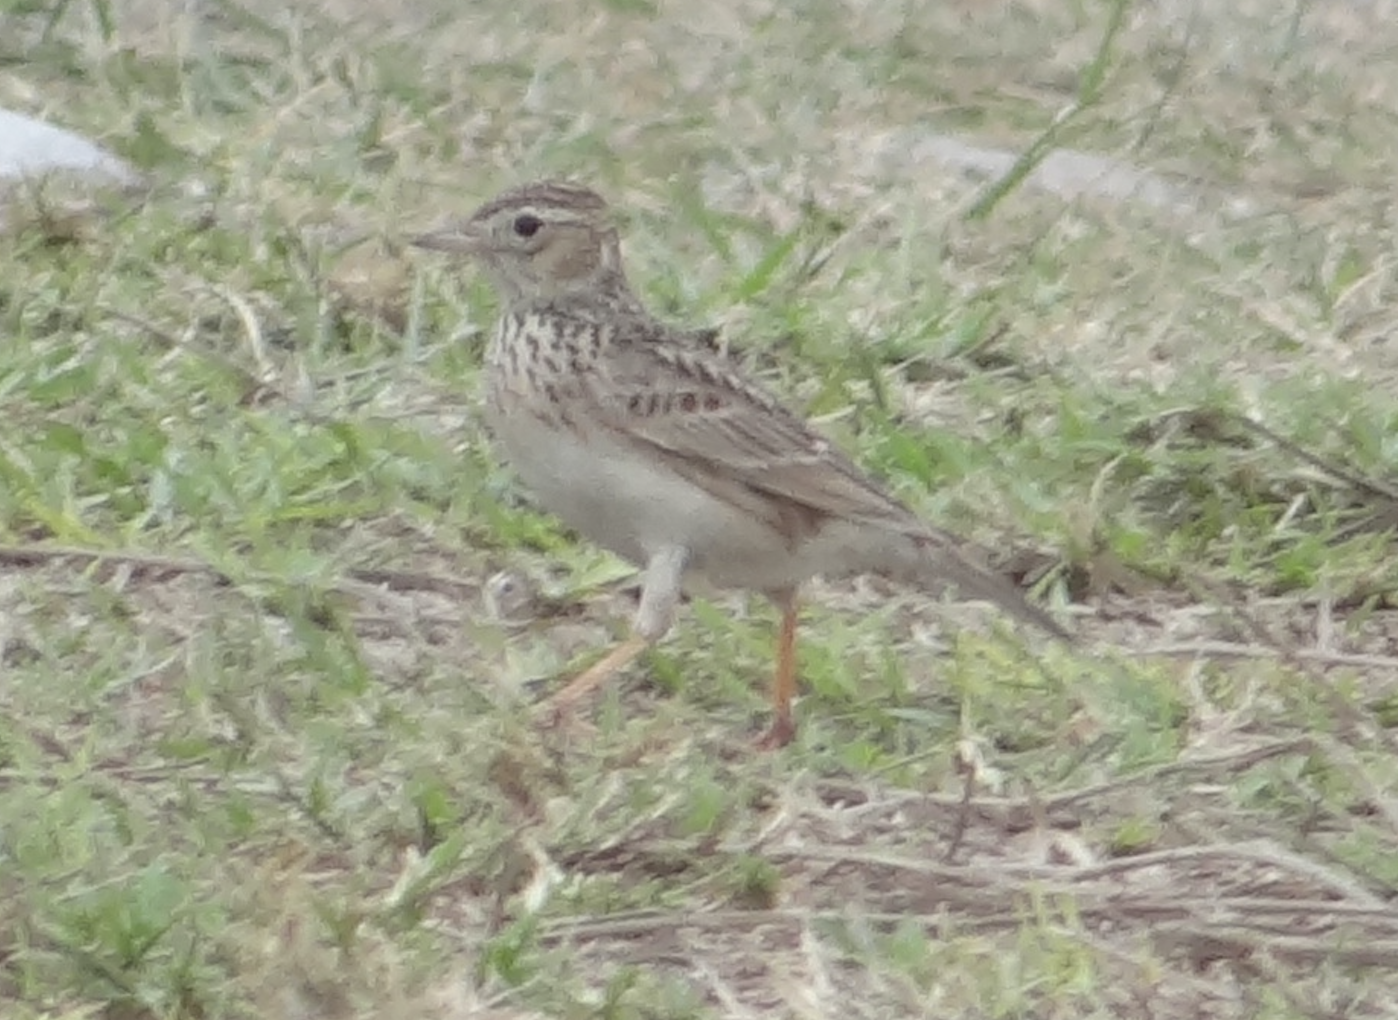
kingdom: Animalia
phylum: Chordata
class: Aves
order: Passeriformes
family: Alaudidae
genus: Alauda
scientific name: Alauda gulgula
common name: Oriental skylark
